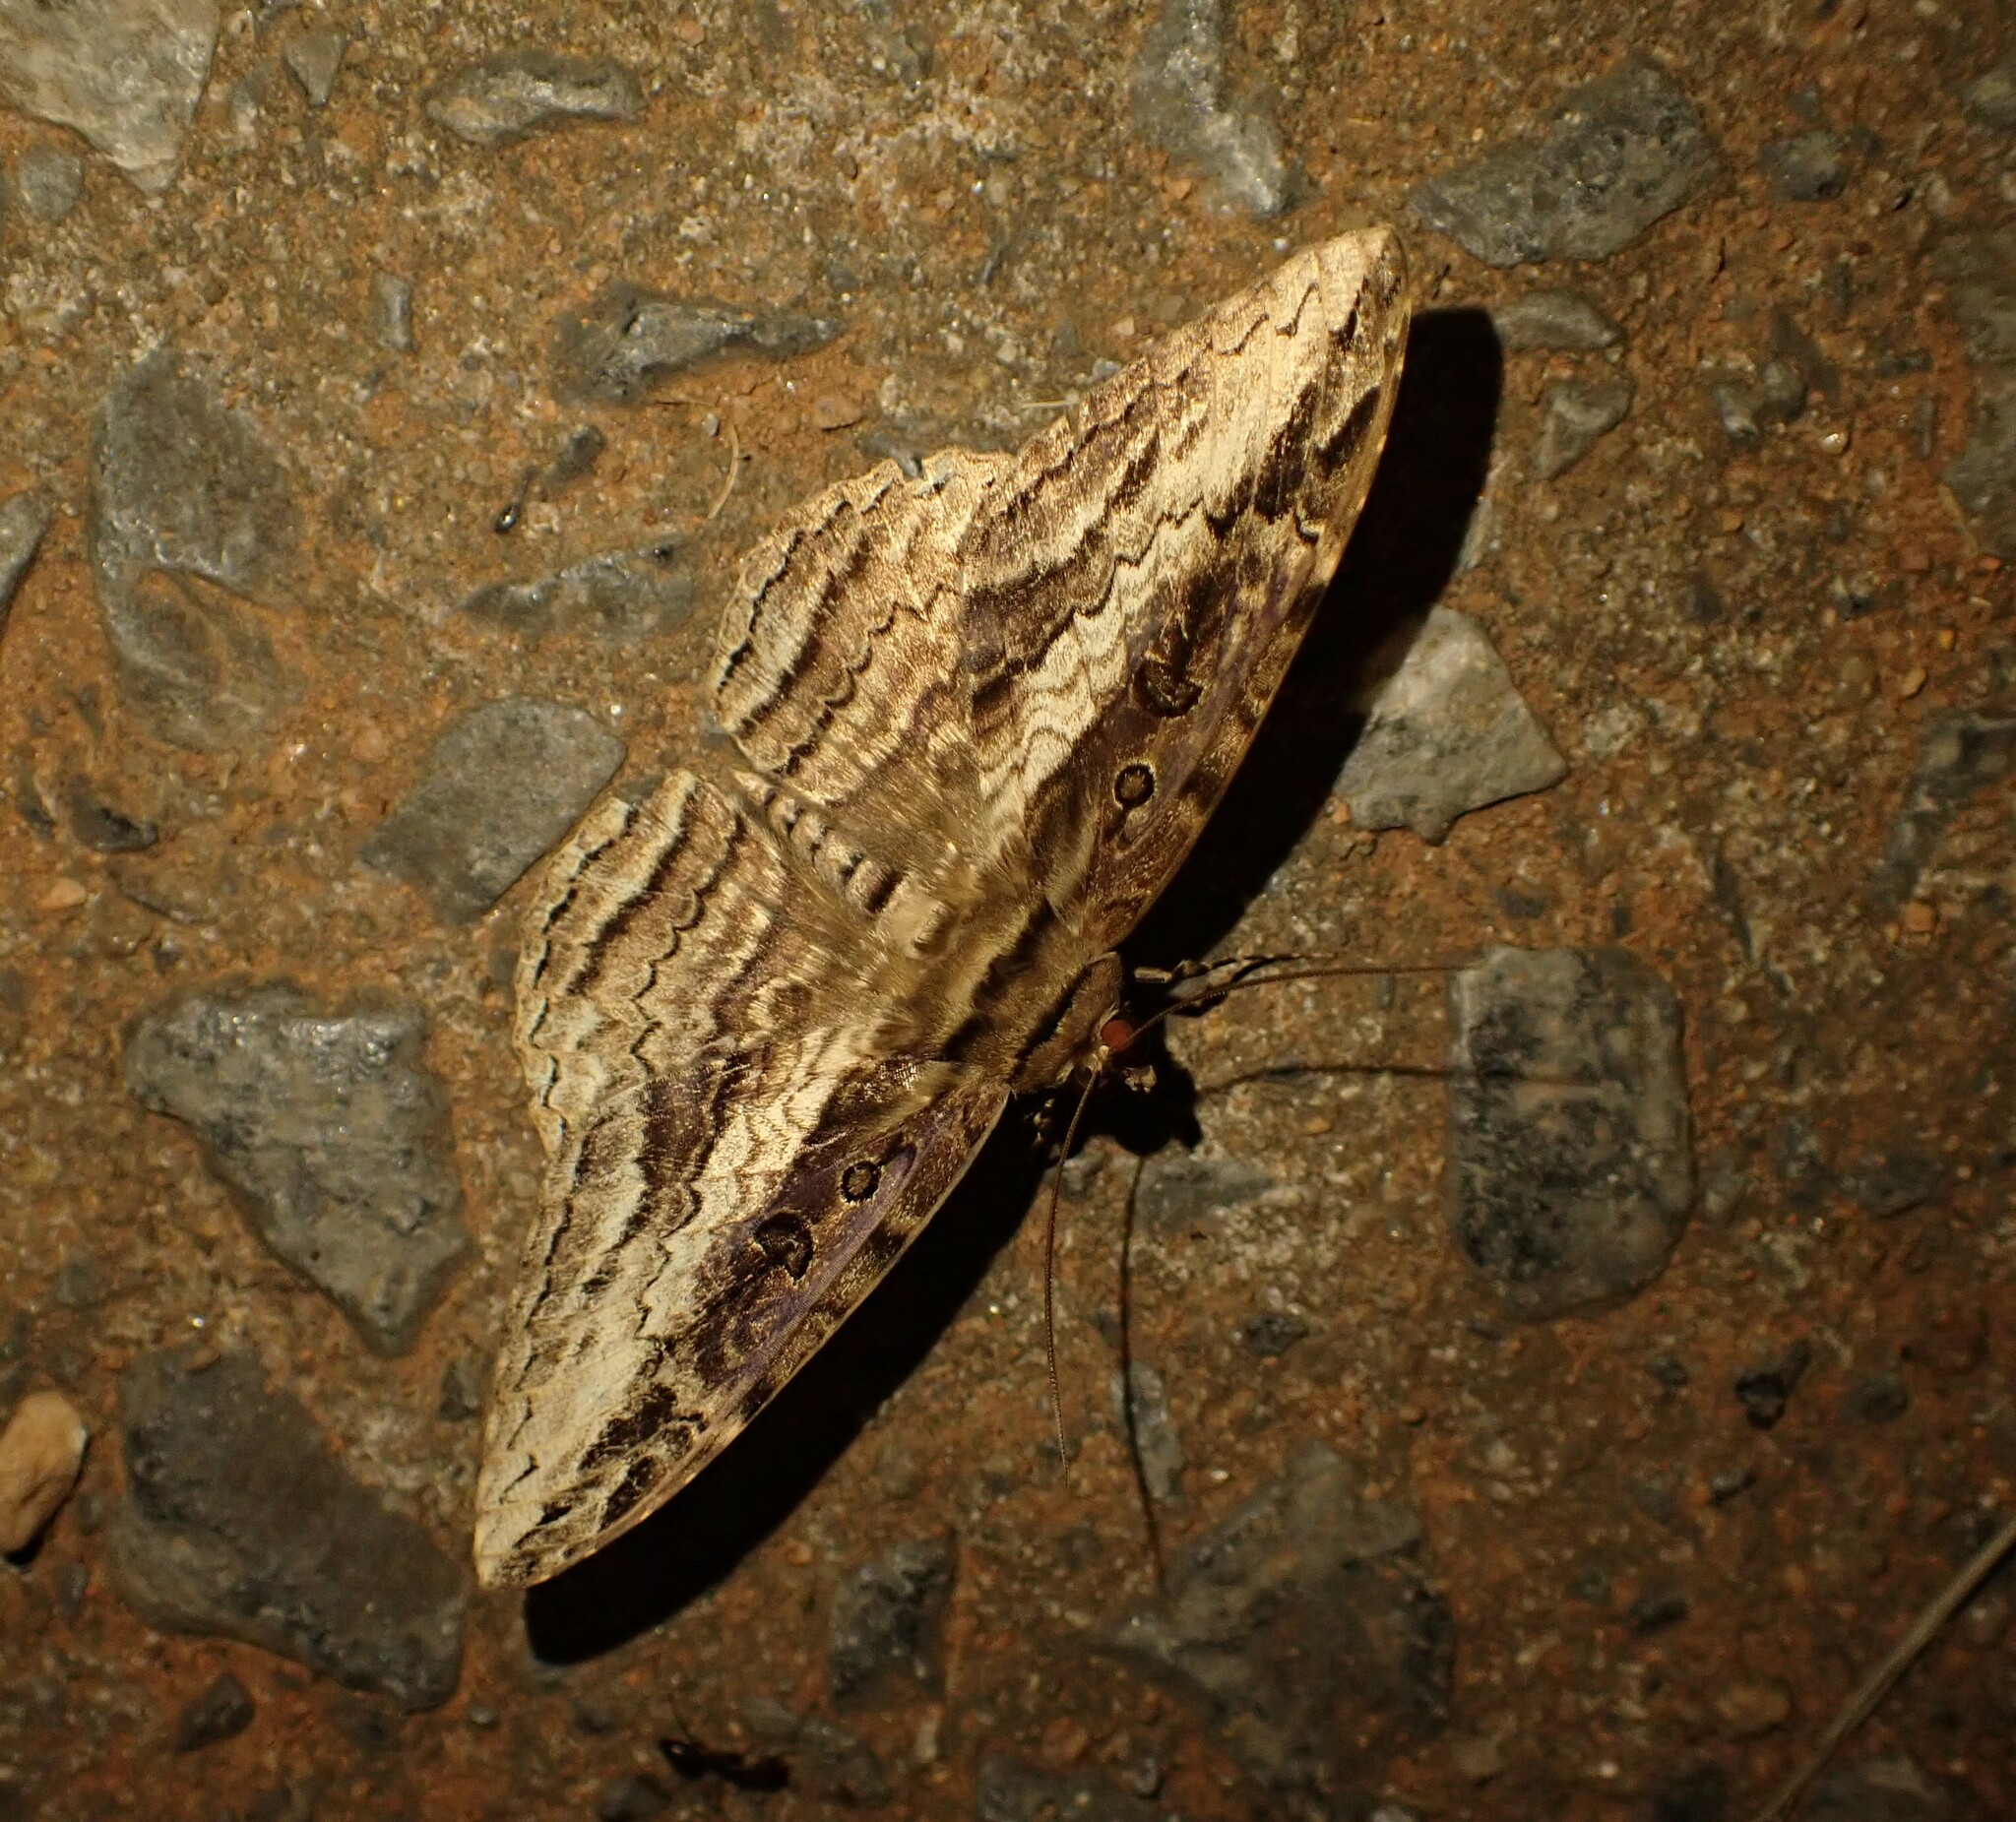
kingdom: Animalia
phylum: Arthropoda
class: Insecta
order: Lepidoptera
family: Erebidae
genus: Feigeria
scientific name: Feigeria buteo
